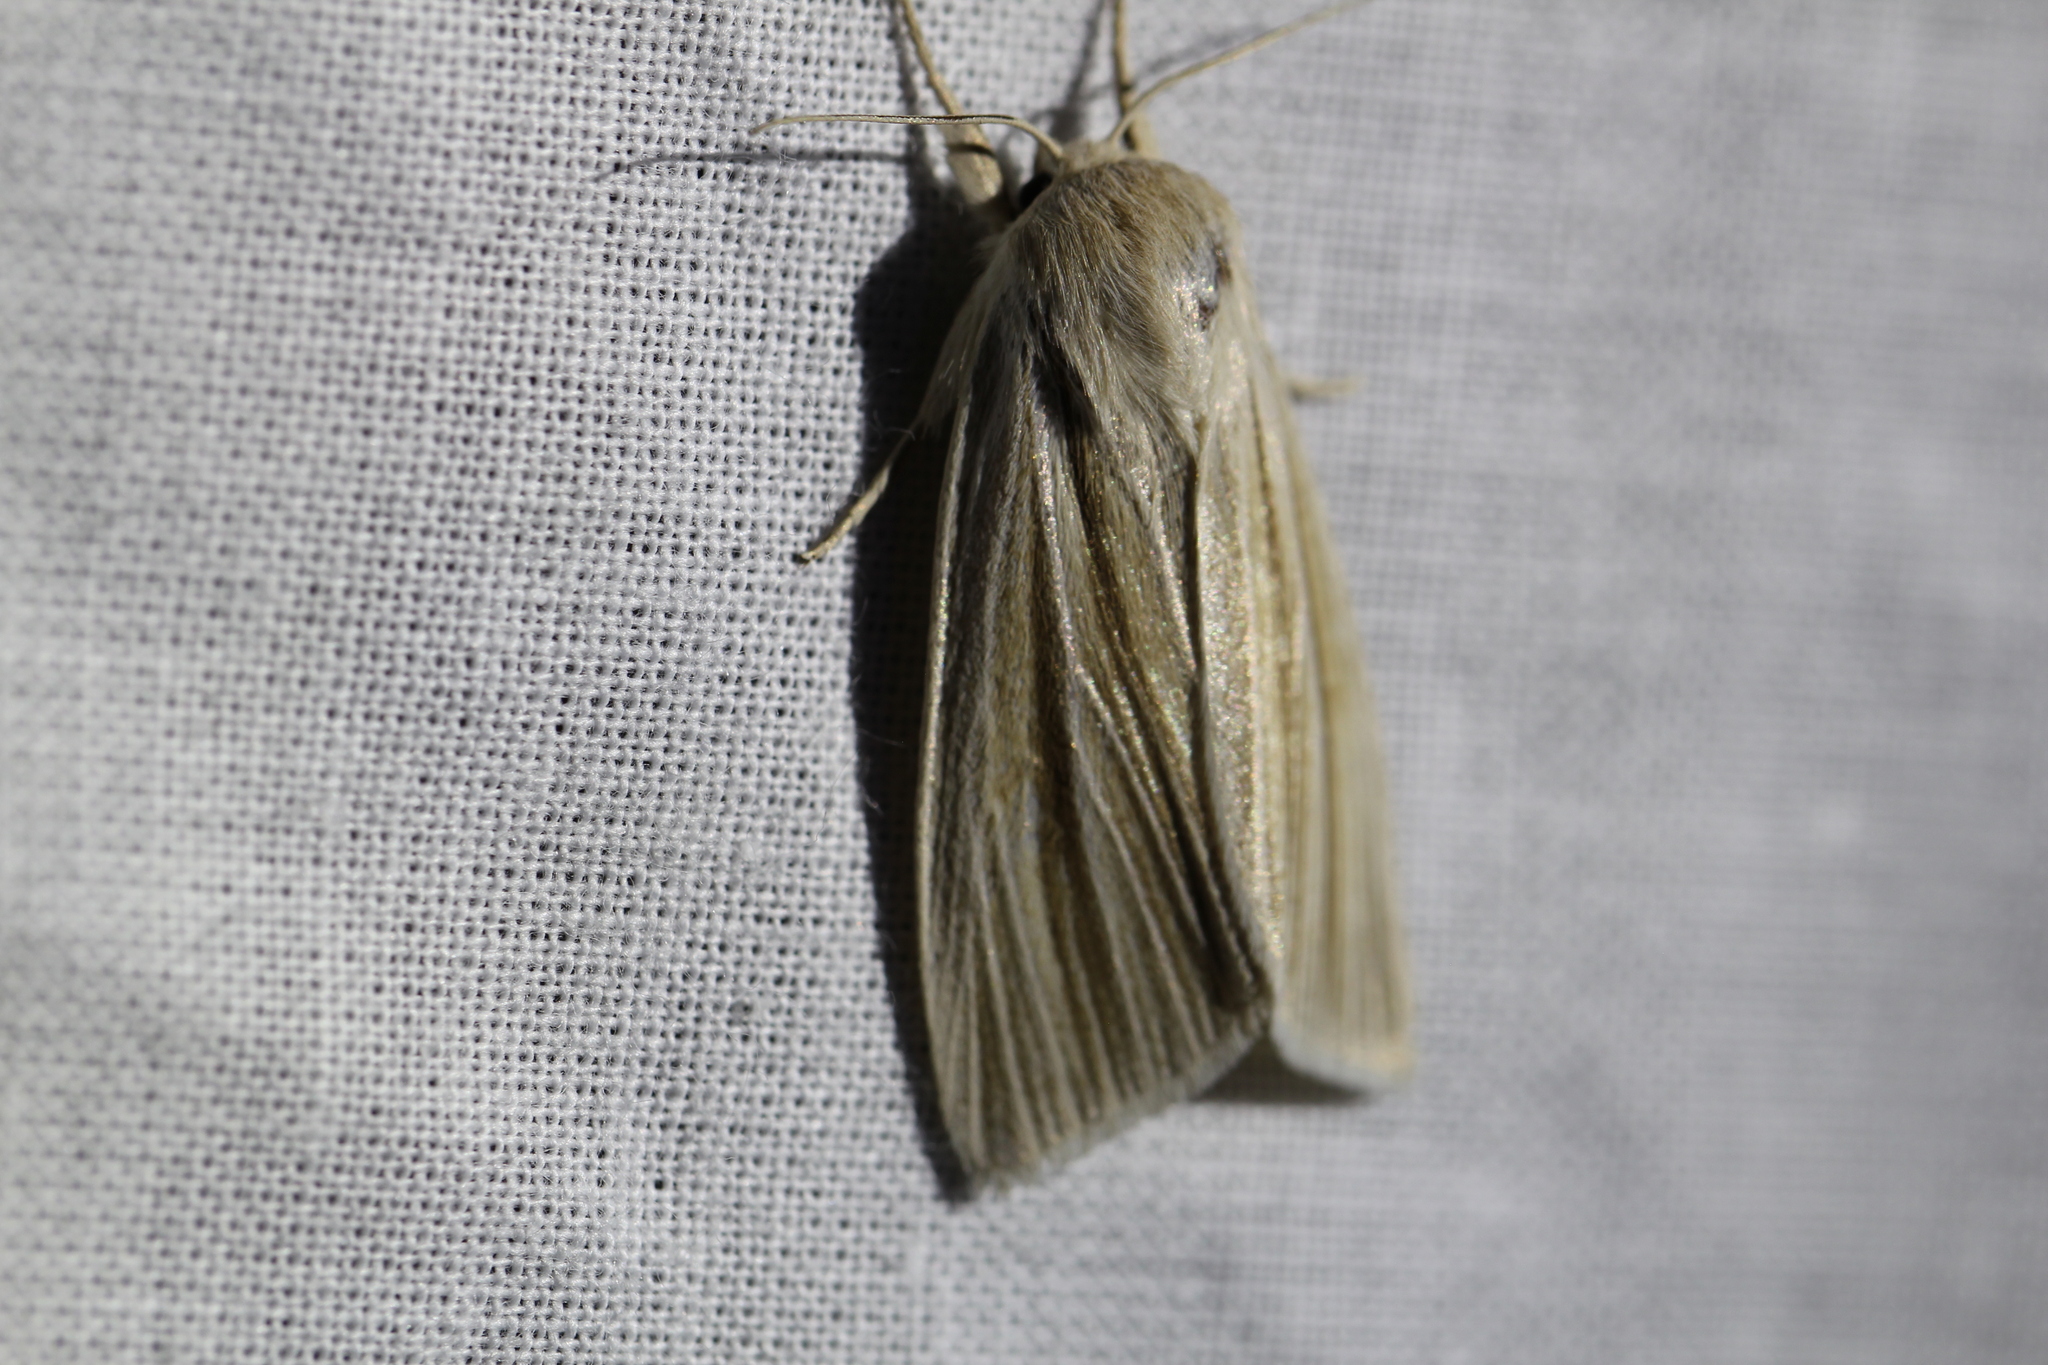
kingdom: Animalia
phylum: Arthropoda
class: Insecta
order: Lepidoptera
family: Noctuidae
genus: Acronicta
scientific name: Acronicta insularis
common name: Henry's marsh moth
